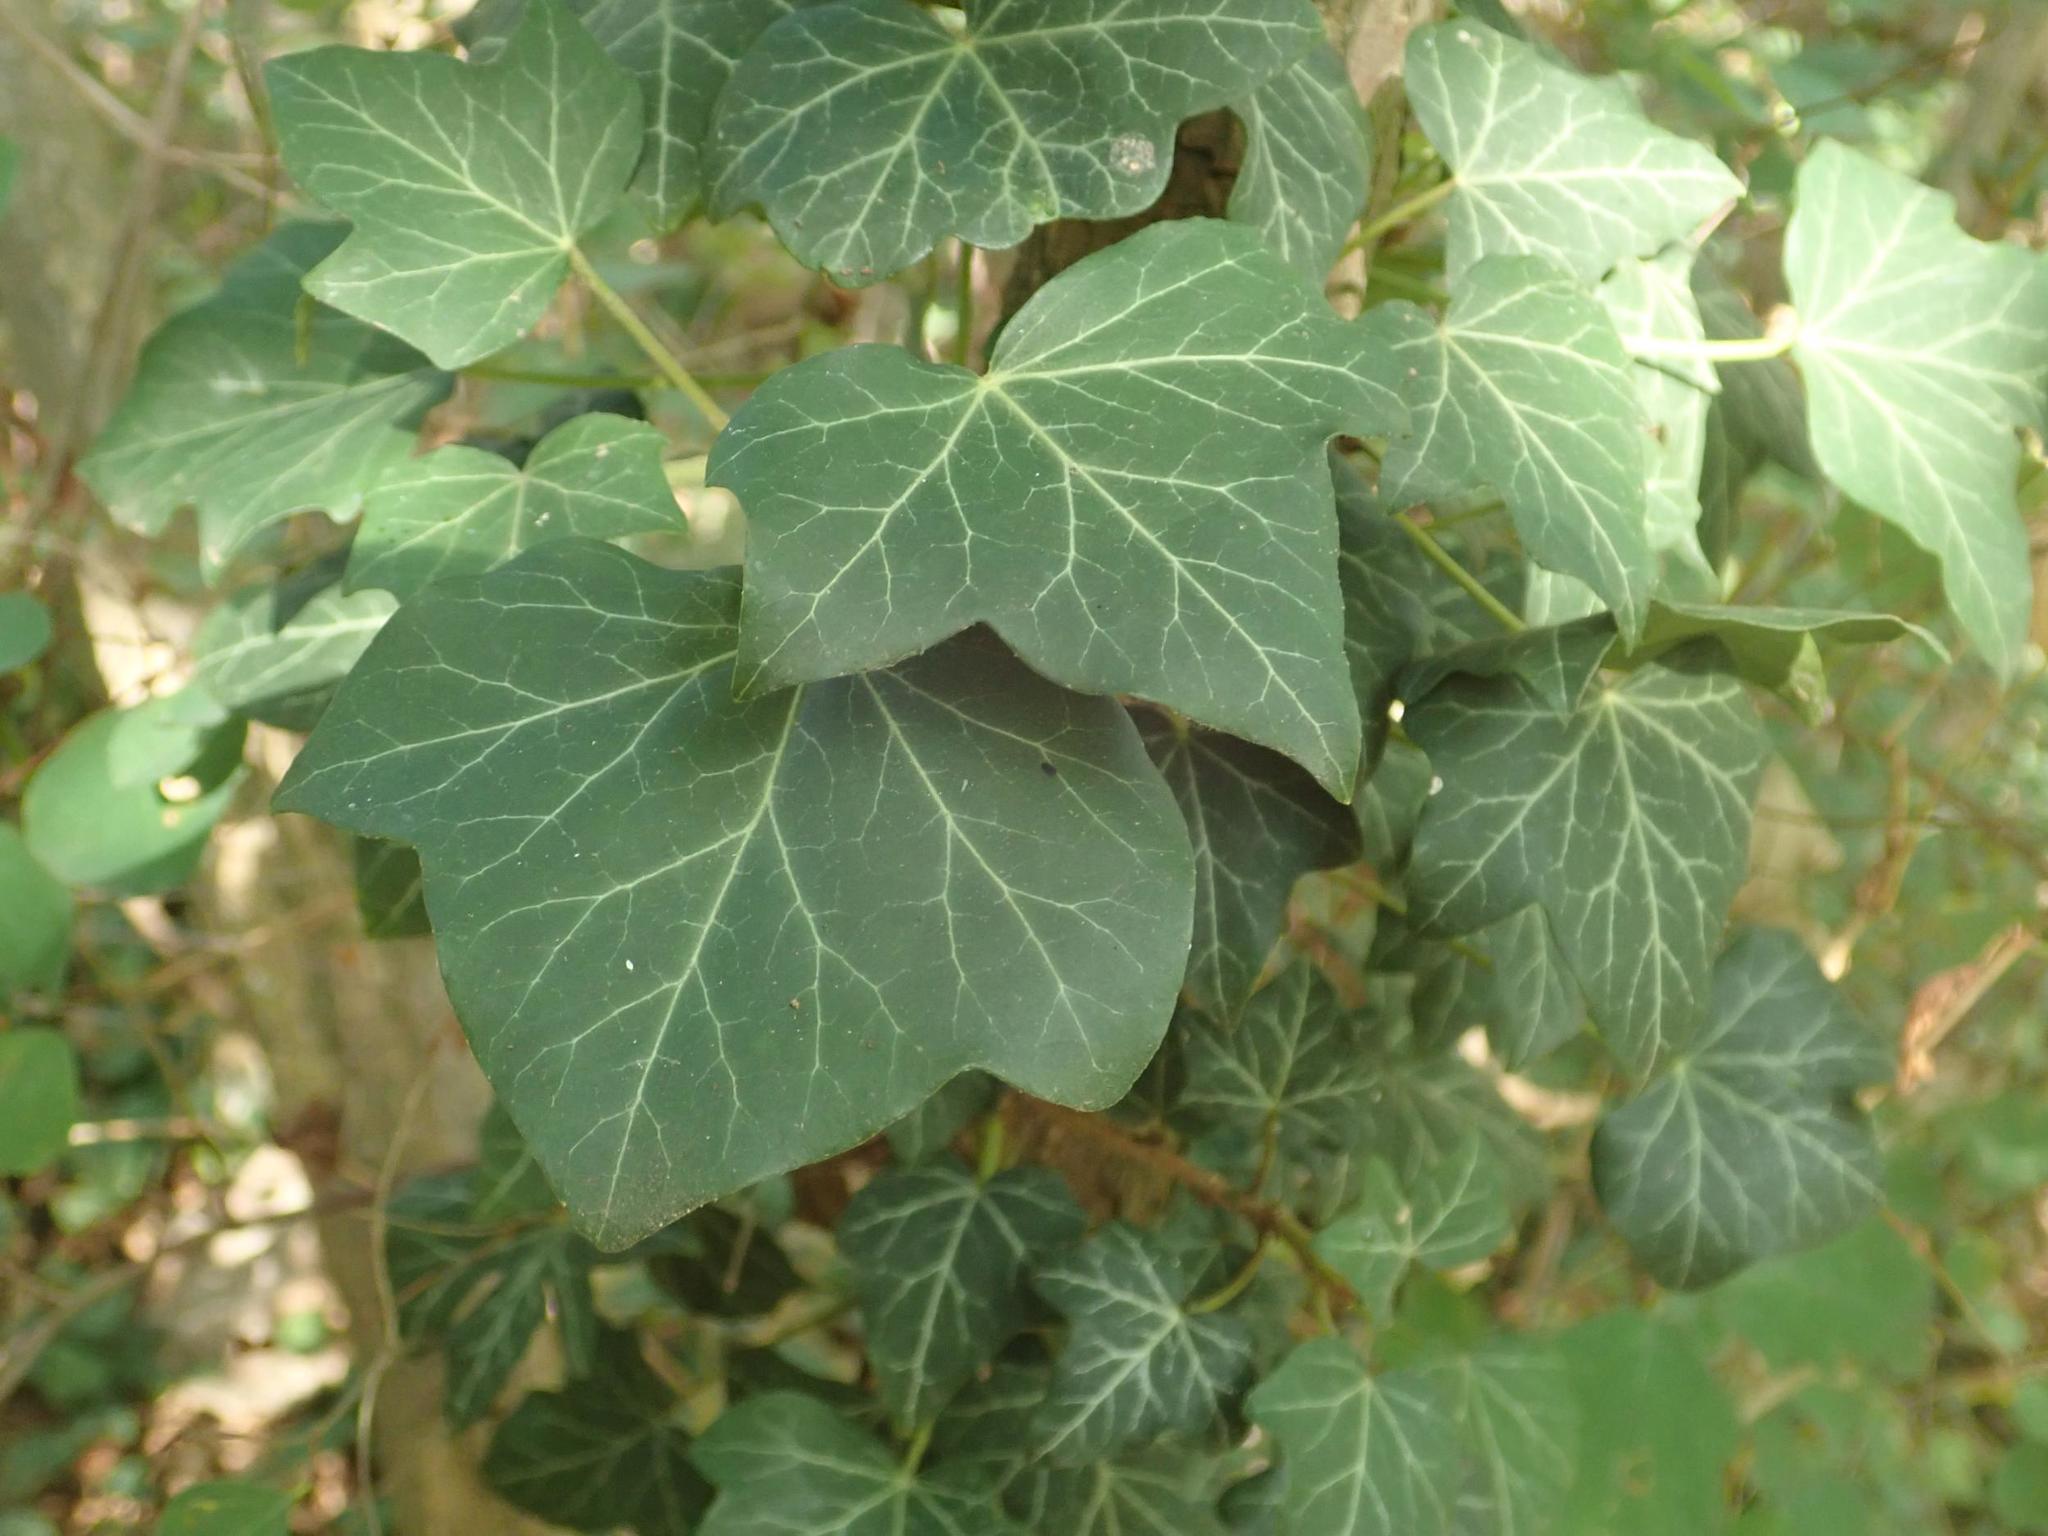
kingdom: Plantae
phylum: Tracheophyta
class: Magnoliopsida
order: Apiales
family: Araliaceae
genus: Hedera
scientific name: Hedera helix
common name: Ivy
